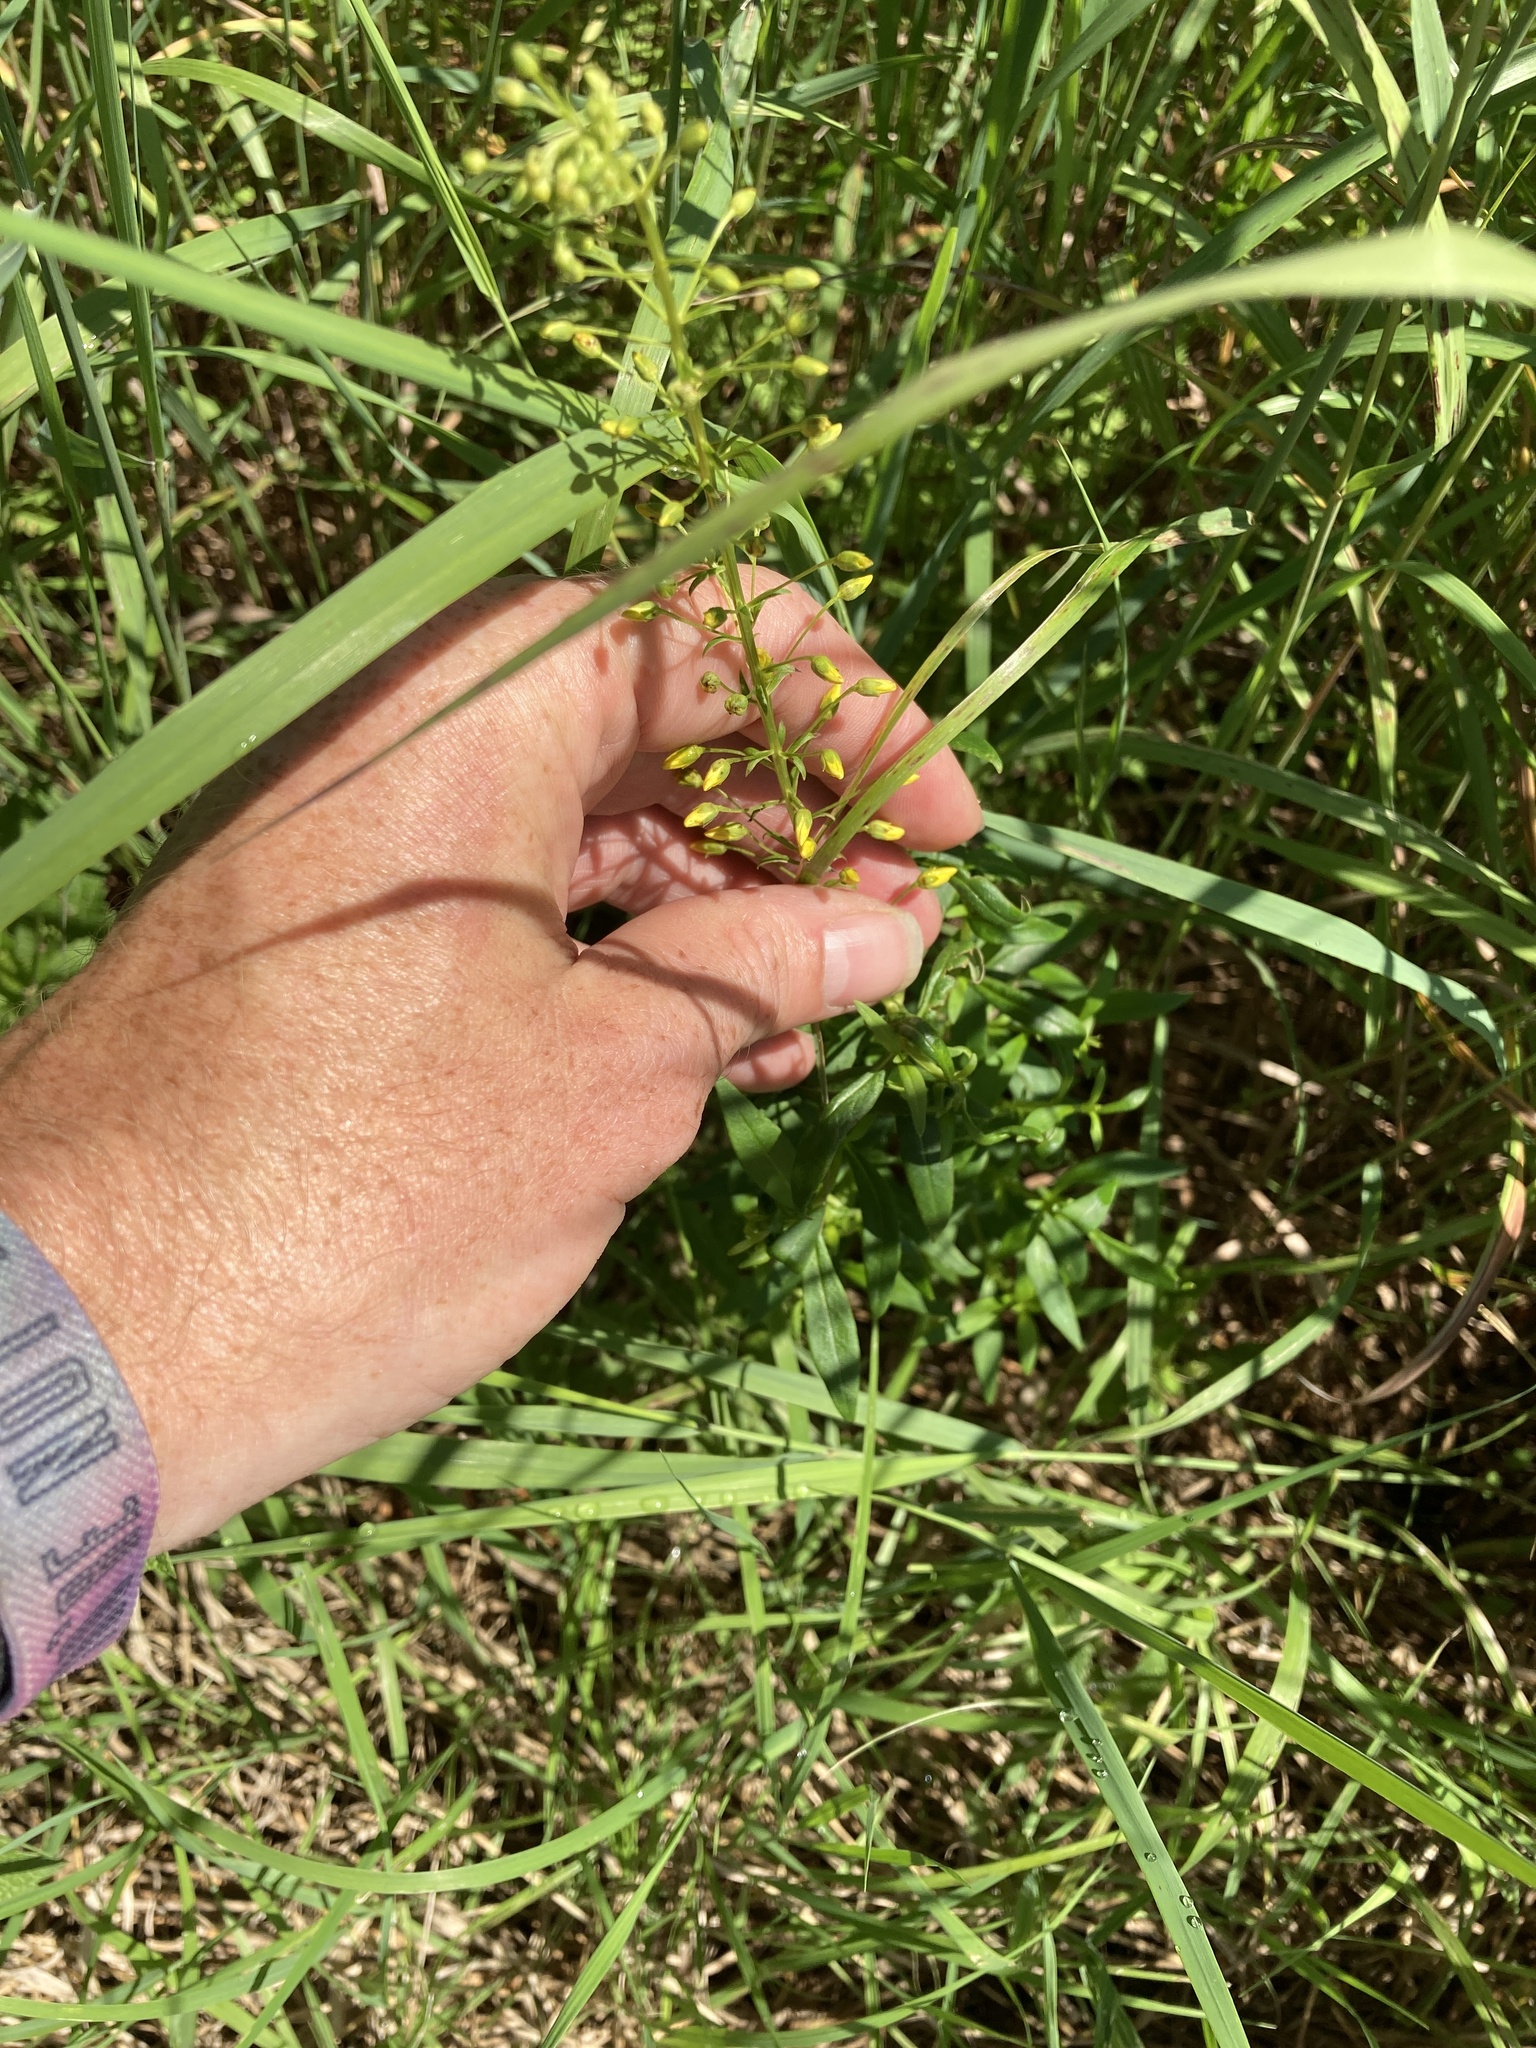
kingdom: Plantae
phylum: Tracheophyta
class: Magnoliopsida
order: Ericales
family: Primulaceae
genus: Lysimachia
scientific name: Lysimachia terrestris
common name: Lake loosestrife
